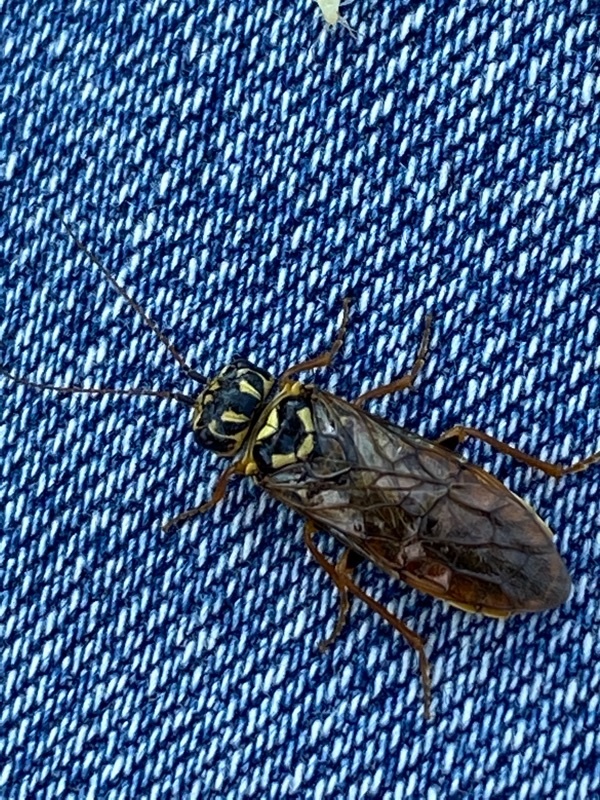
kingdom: Animalia
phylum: Arthropoda
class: Insecta
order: Hymenoptera
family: Pamphiliidae
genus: Acantholyda
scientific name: Acantholyda posticalis
